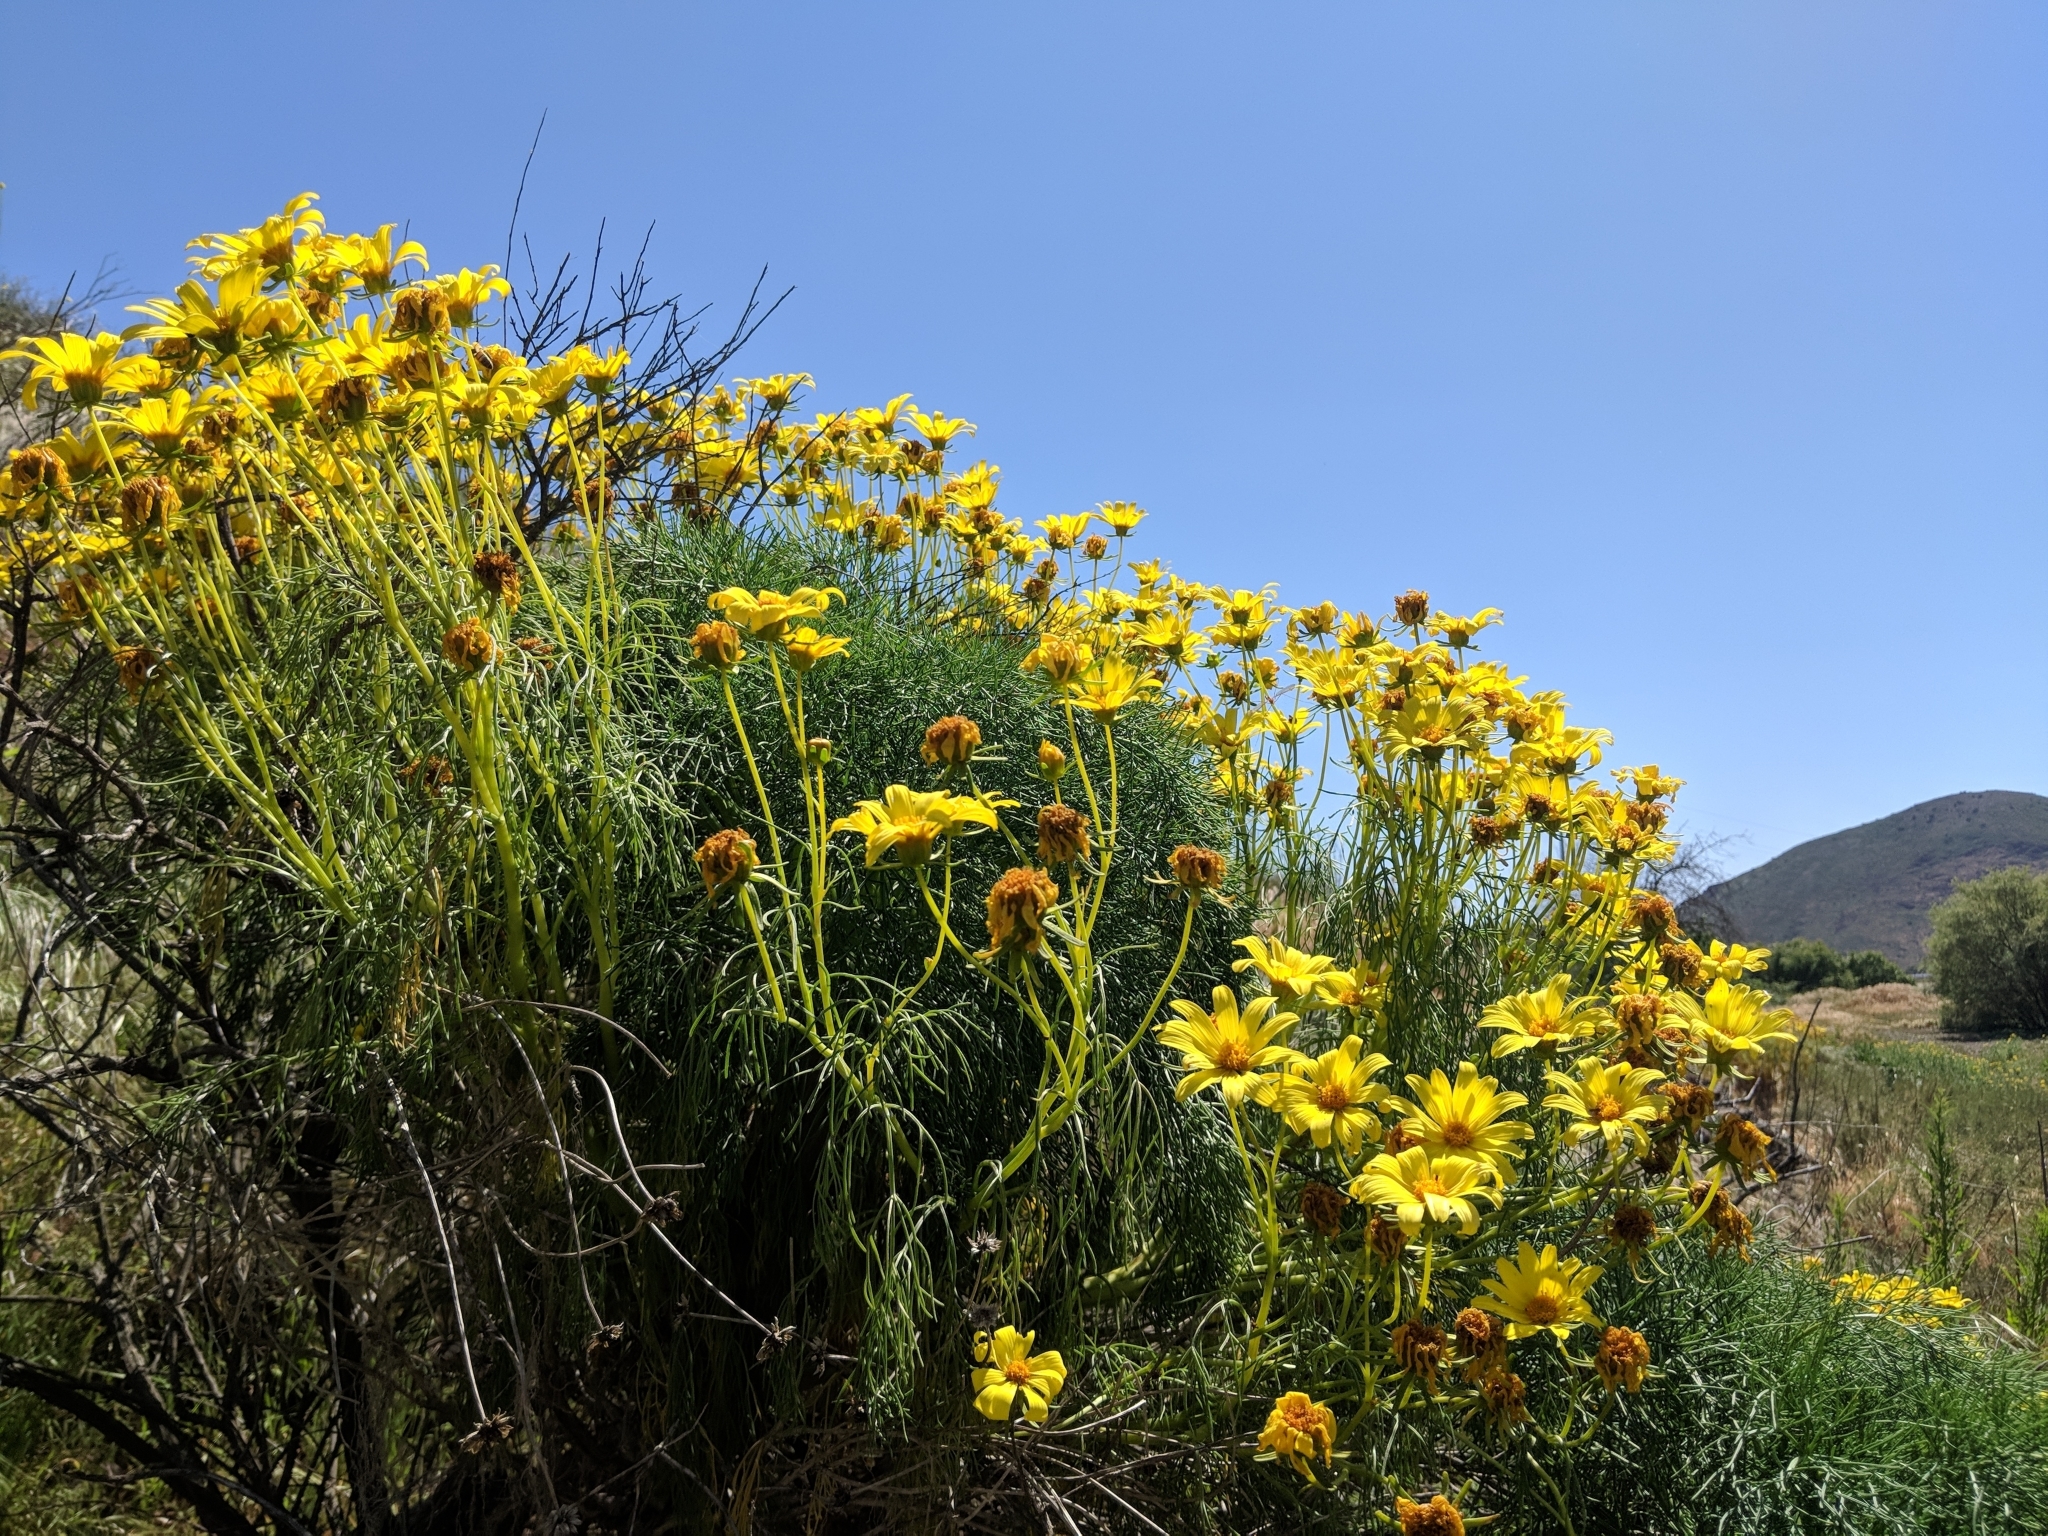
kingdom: Plantae
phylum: Tracheophyta
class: Magnoliopsida
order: Asterales
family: Asteraceae
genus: Coreopsis
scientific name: Coreopsis gigantea
